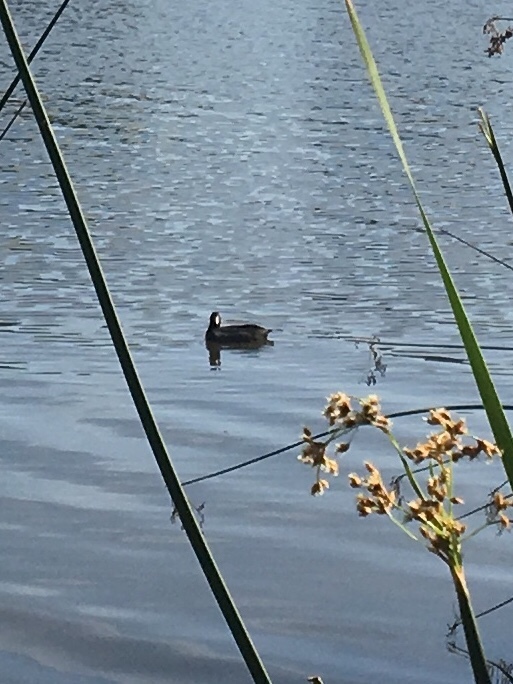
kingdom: Animalia
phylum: Chordata
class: Aves
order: Gruiformes
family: Rallidae
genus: Fulica
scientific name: Fulica americana
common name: American coot
